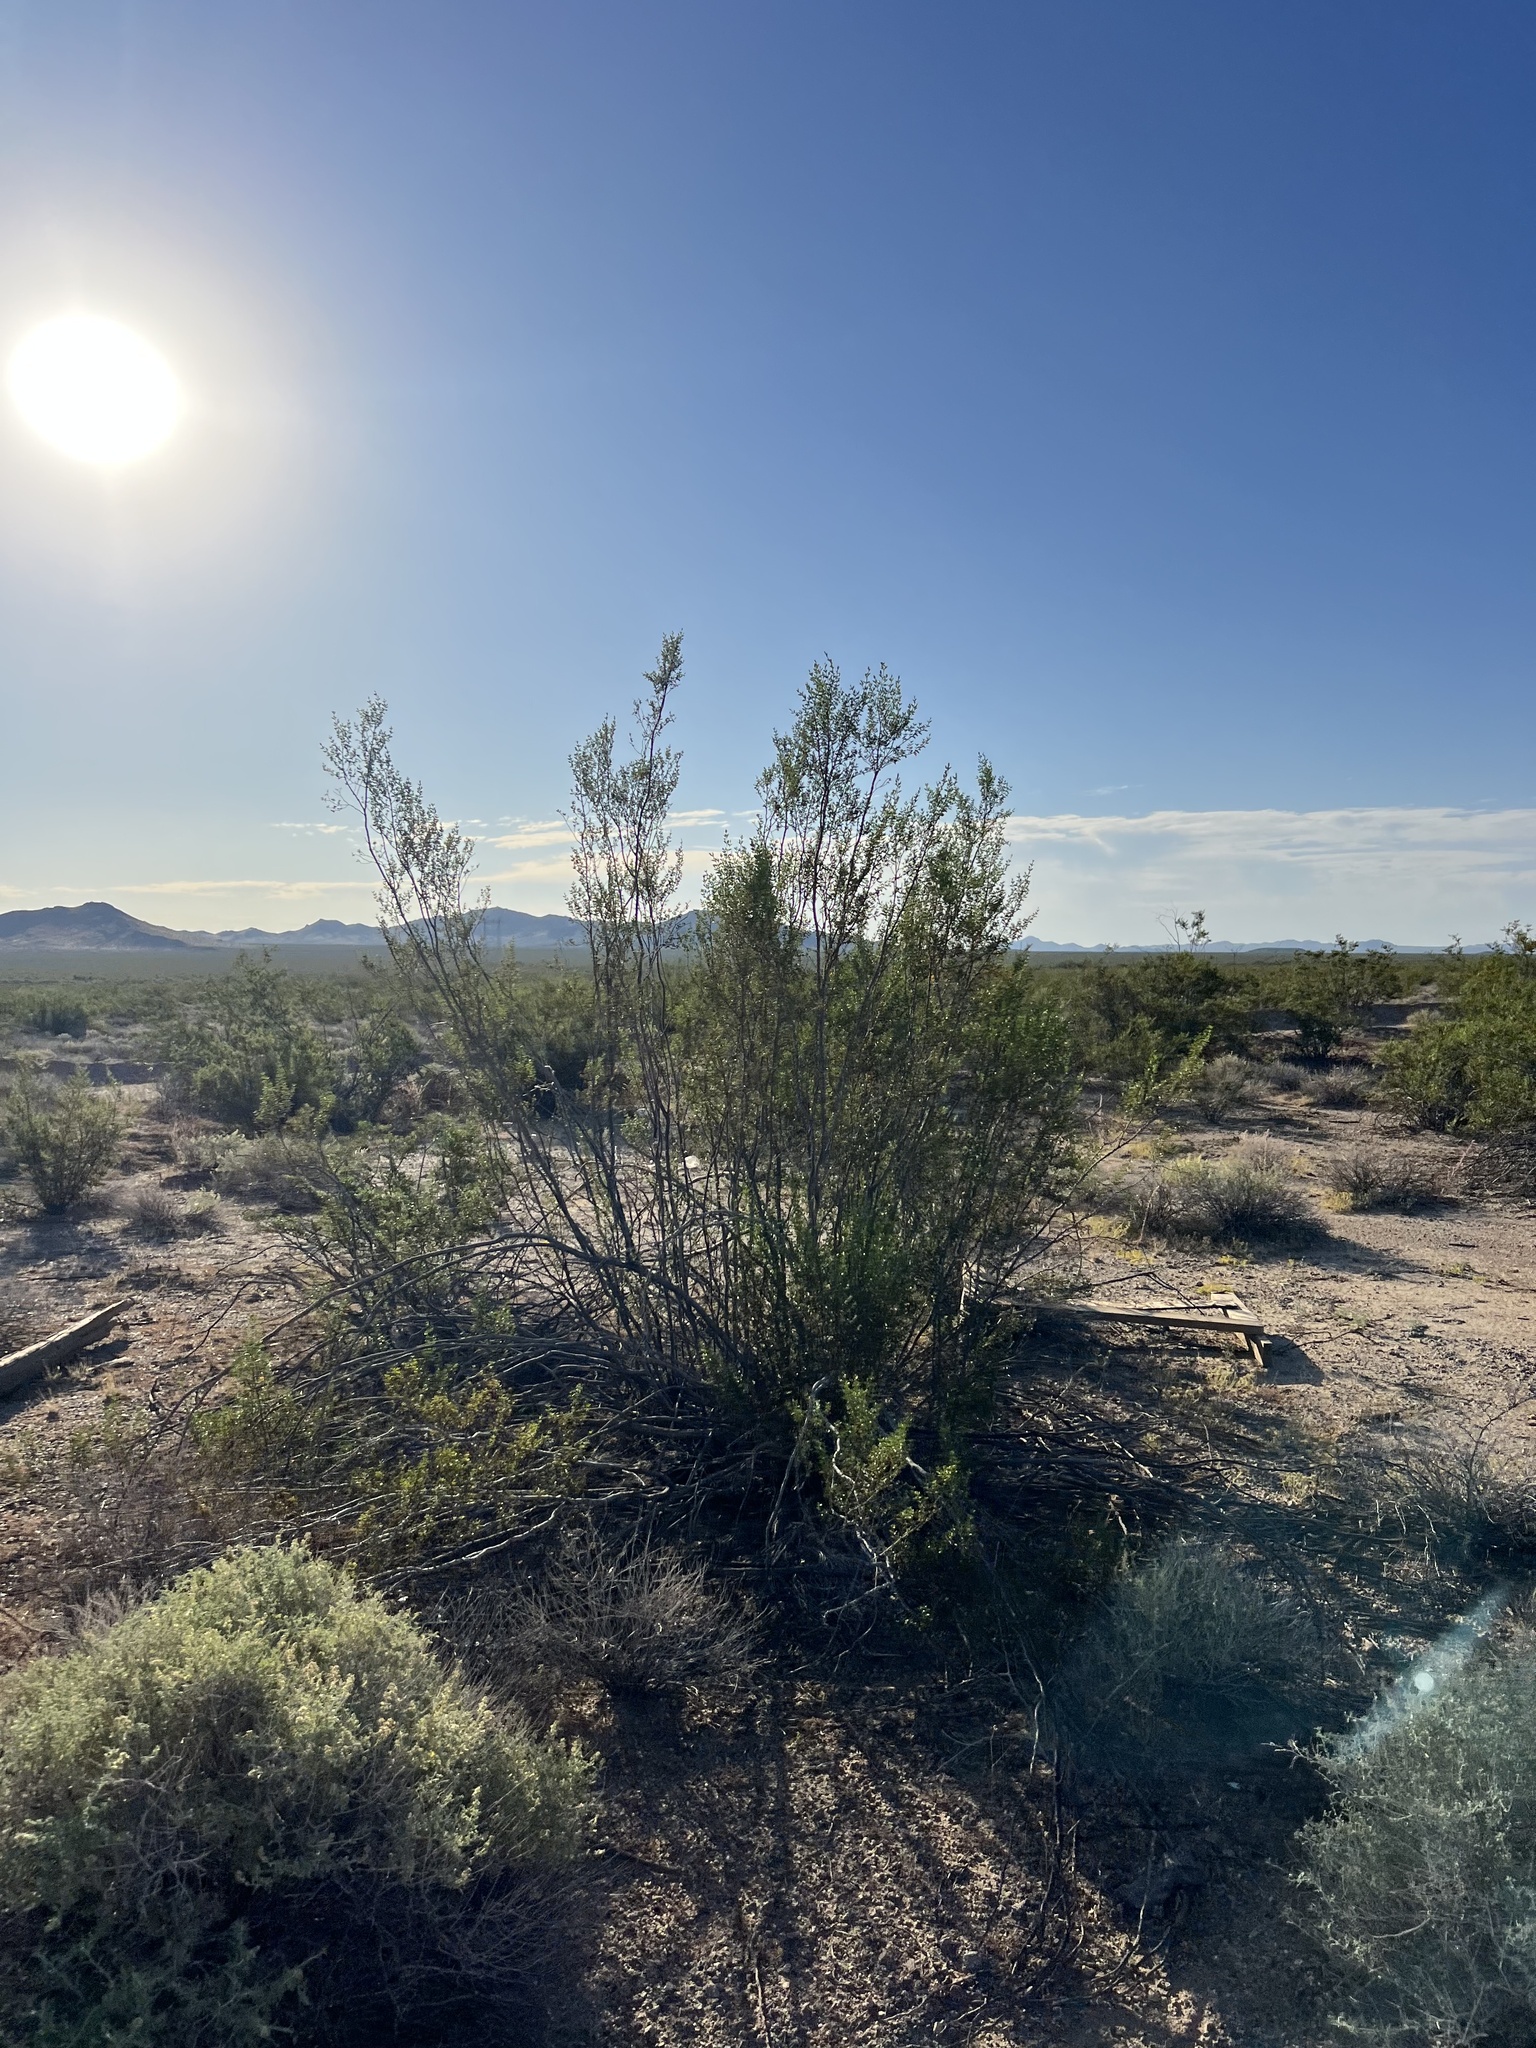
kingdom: Plantae
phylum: Tracheophyta
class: Magnoliopsida
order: Zygophyllales
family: Zygophyllaceae
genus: Larrea
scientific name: Larrea tridentata
